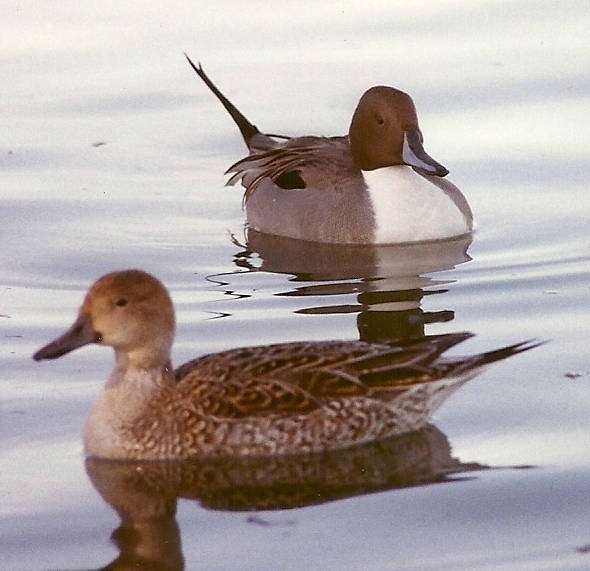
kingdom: Animalia
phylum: Chordata
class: Aves
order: Anseriformes
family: Anatidae
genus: Anas
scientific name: Anas acuta
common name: Northern pintail
